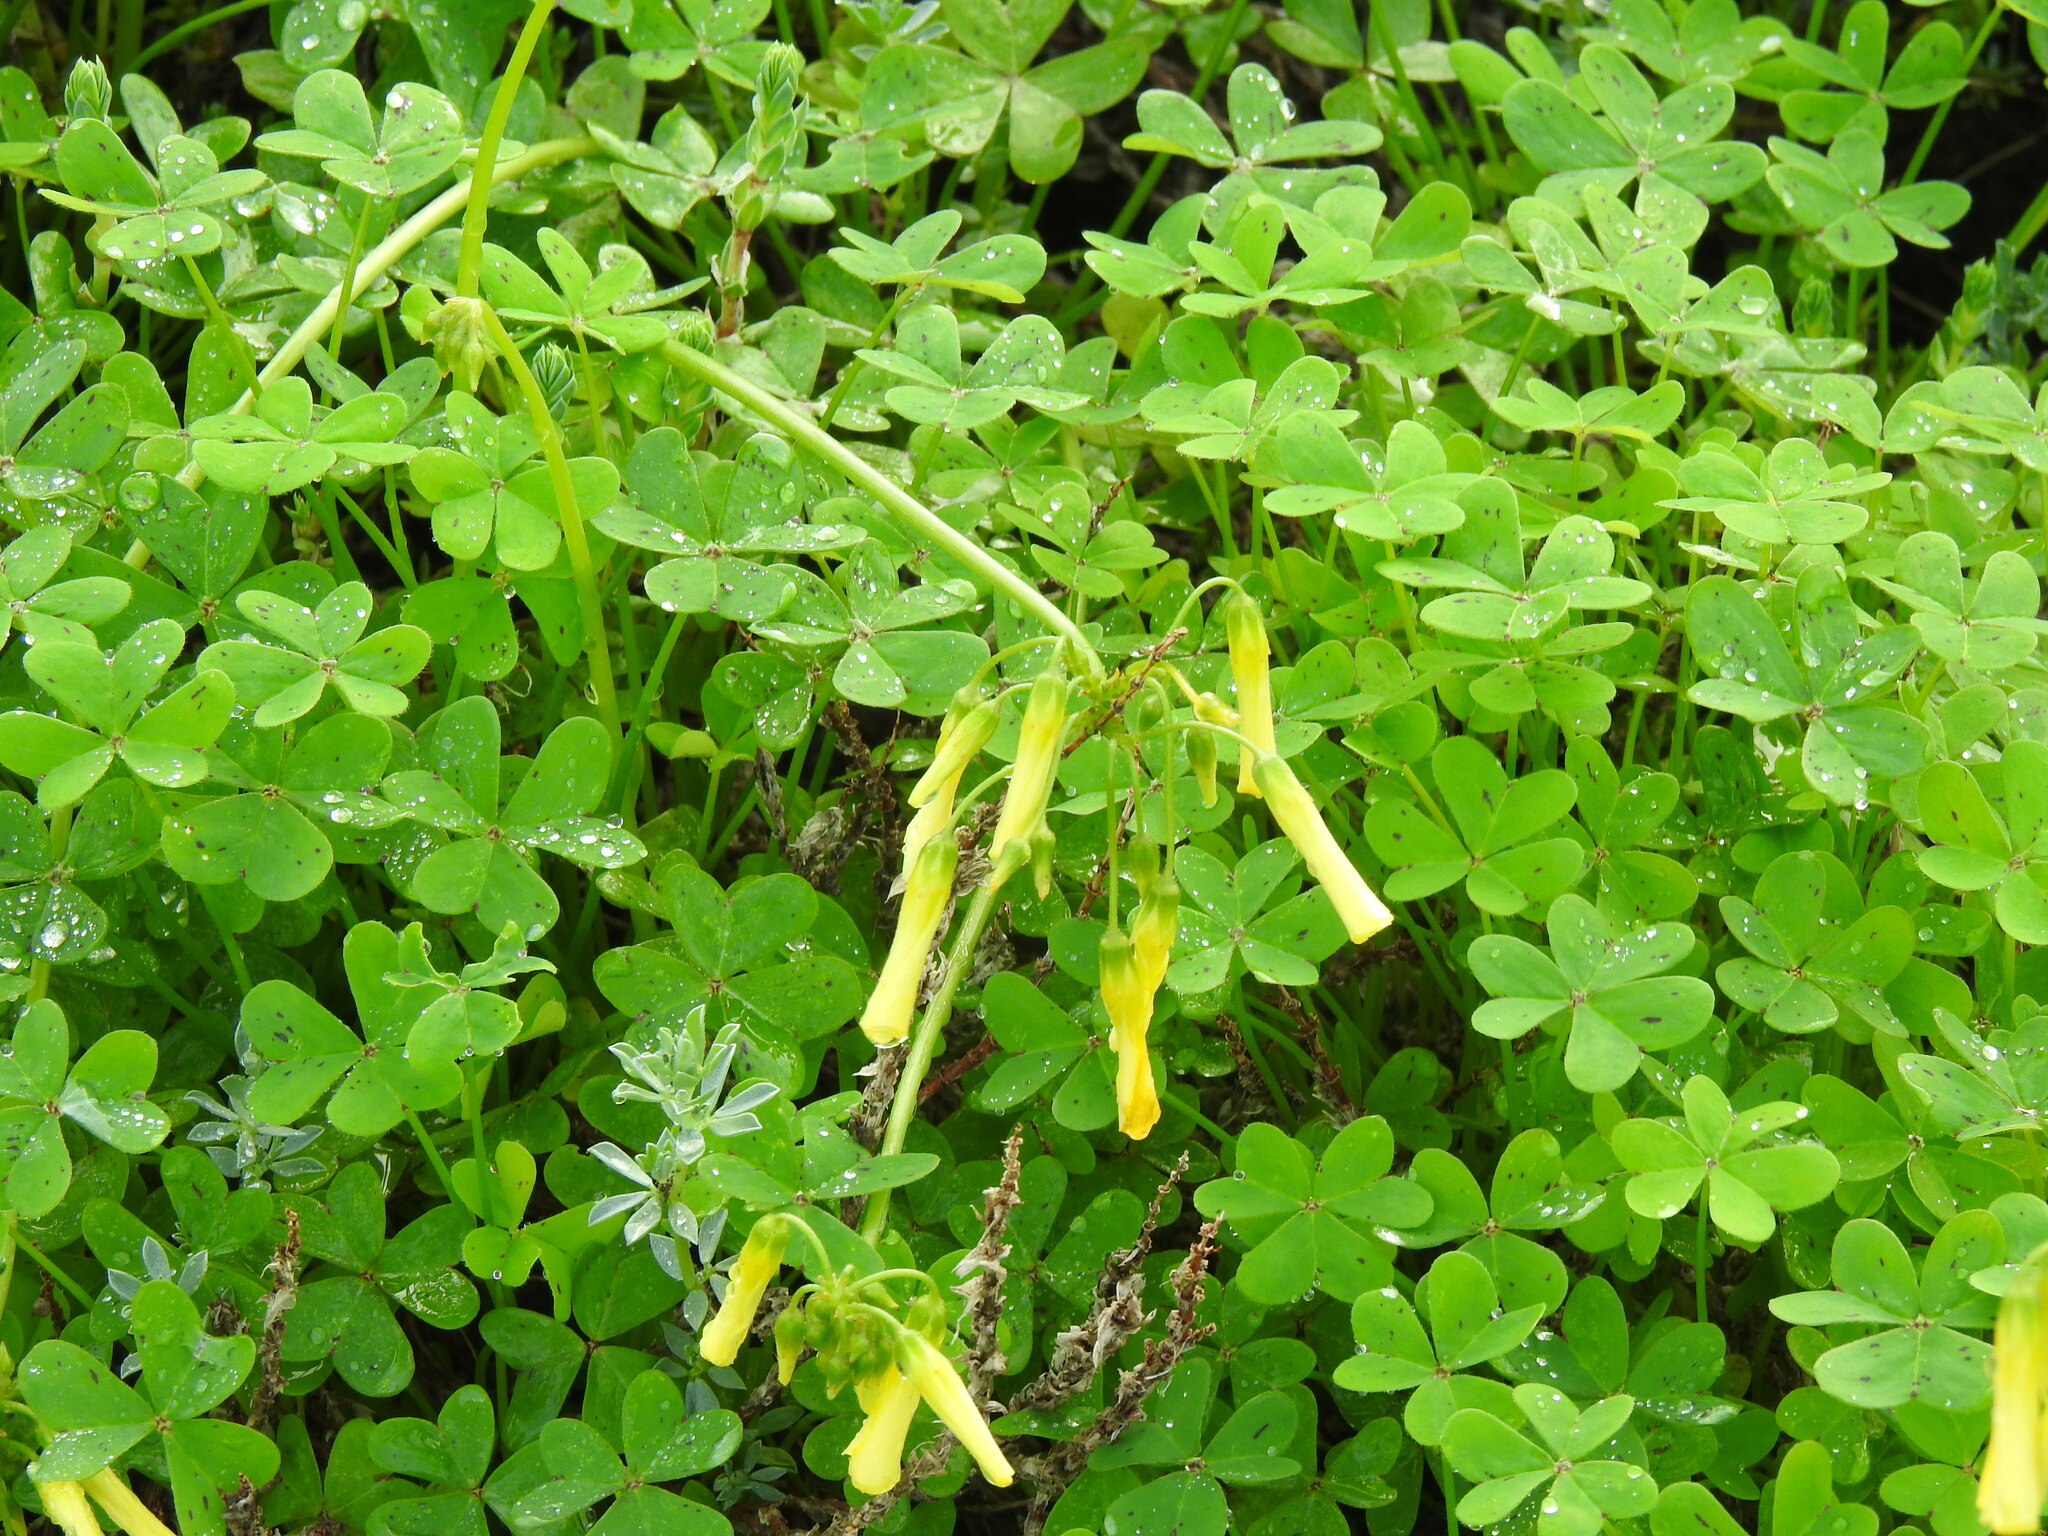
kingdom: Plantae
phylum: Tracheophyta
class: Magnoliopsida
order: Oxalidales
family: Oxalidaceae
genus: Oxalis
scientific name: Oxalis pes-caprae
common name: Bermuda-buttercup
